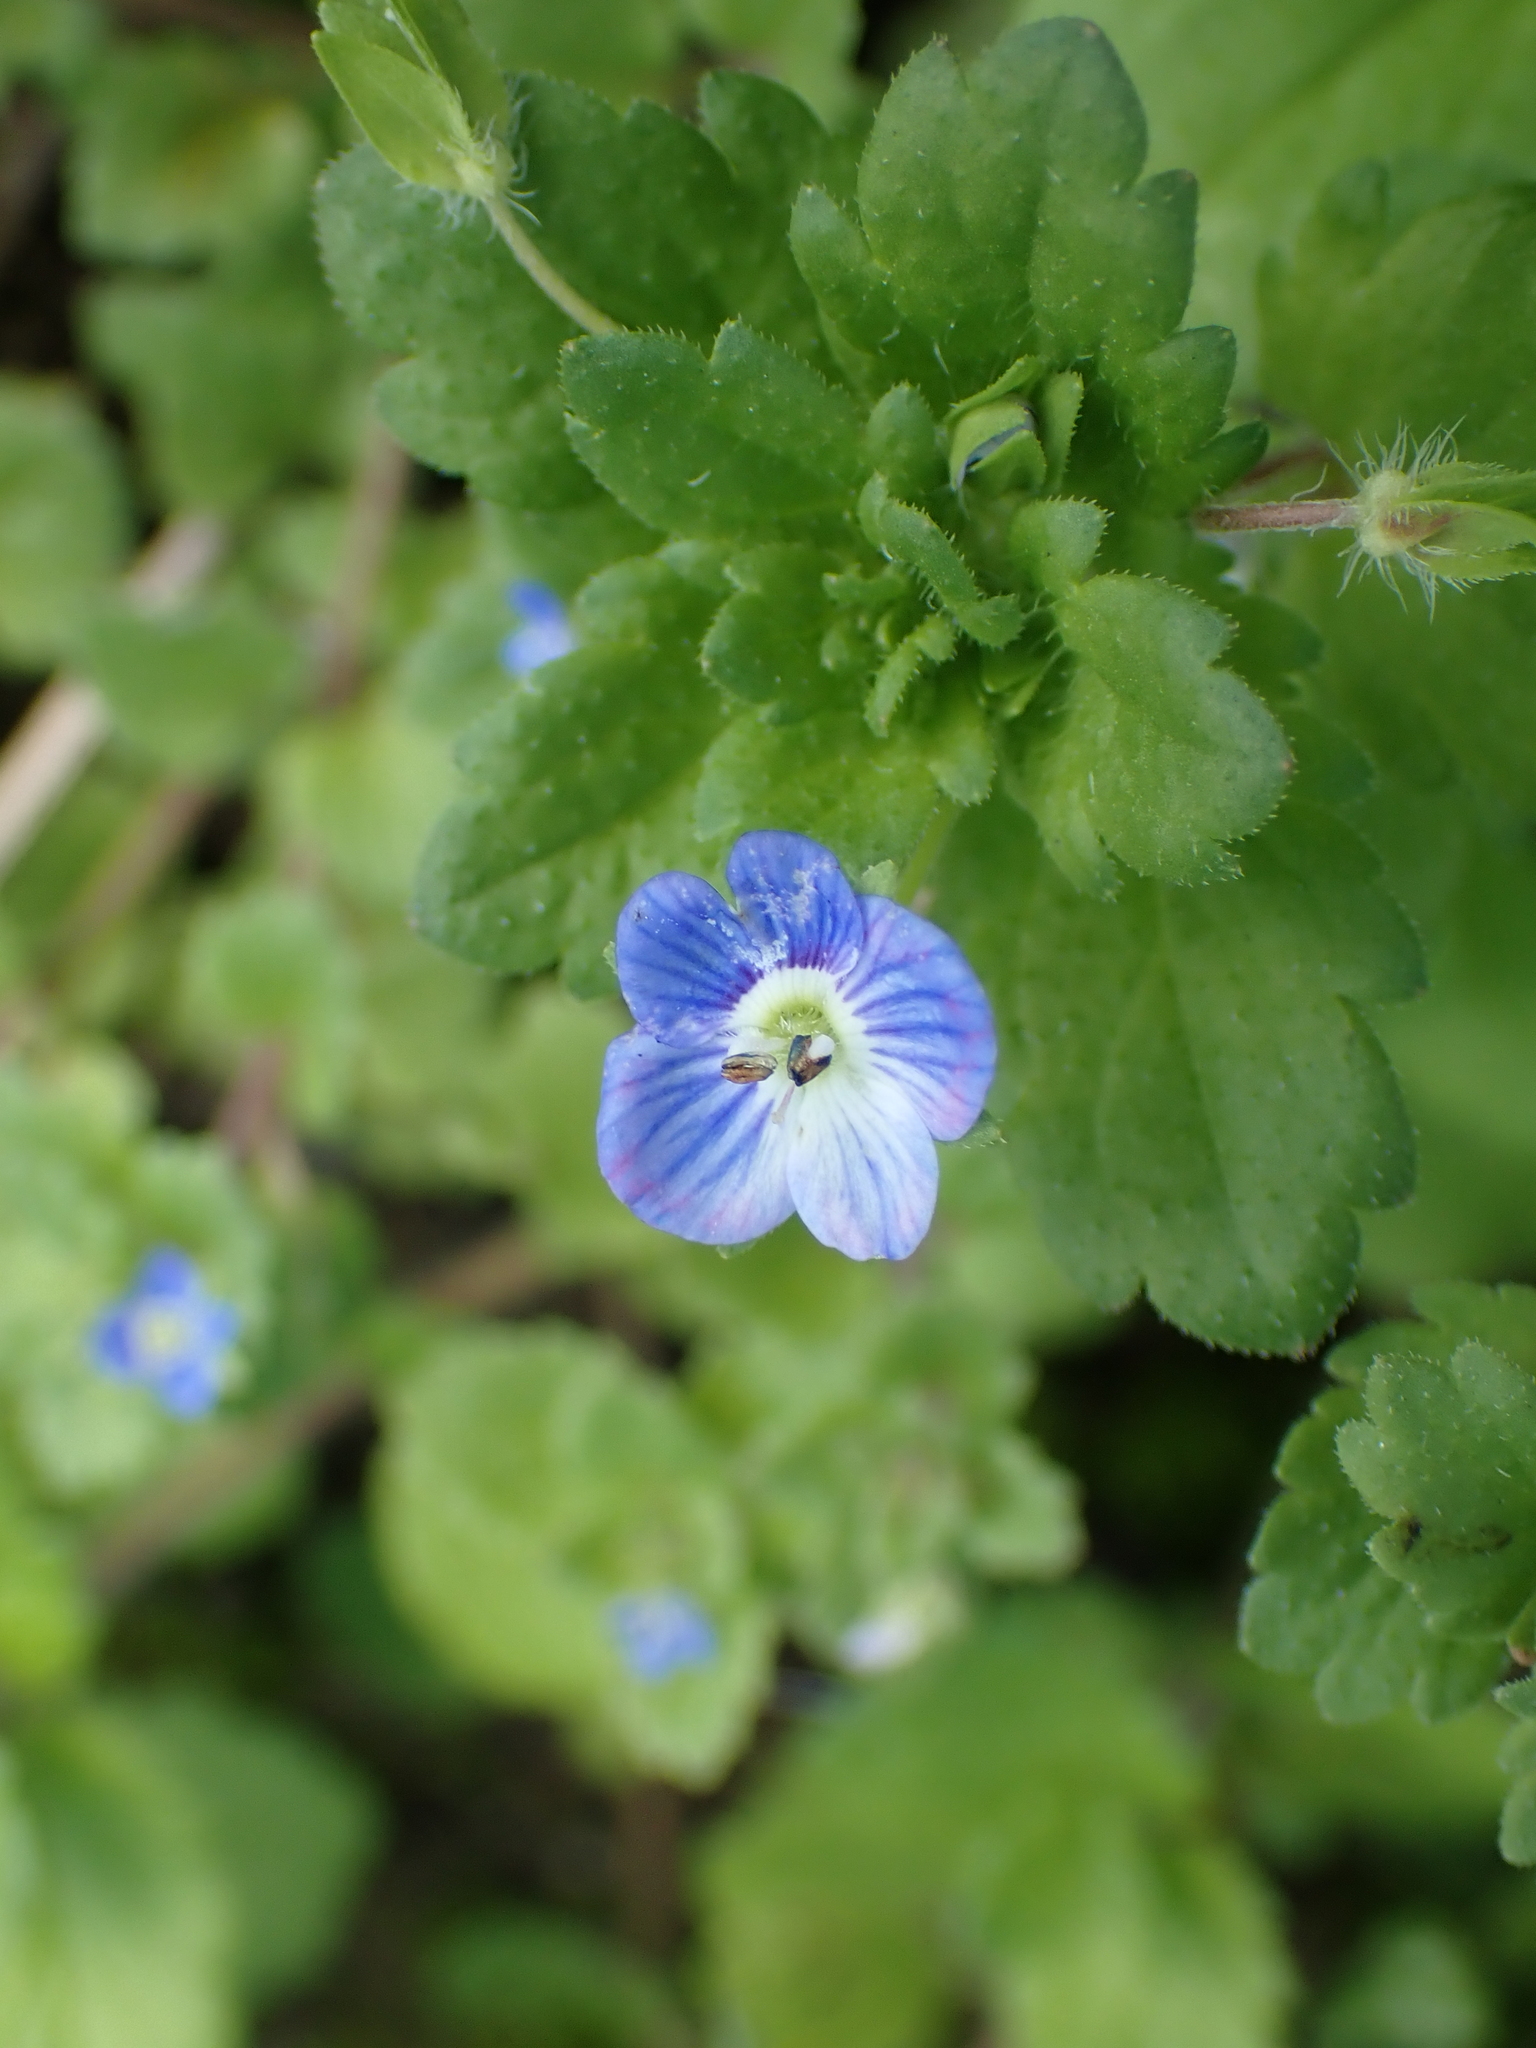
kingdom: Plantae
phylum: Tracheophyta
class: Magnoliopsida
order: Lamiales
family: Plantaginaceae
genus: Veronica
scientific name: Veronica persica
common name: Common field-speedwell
